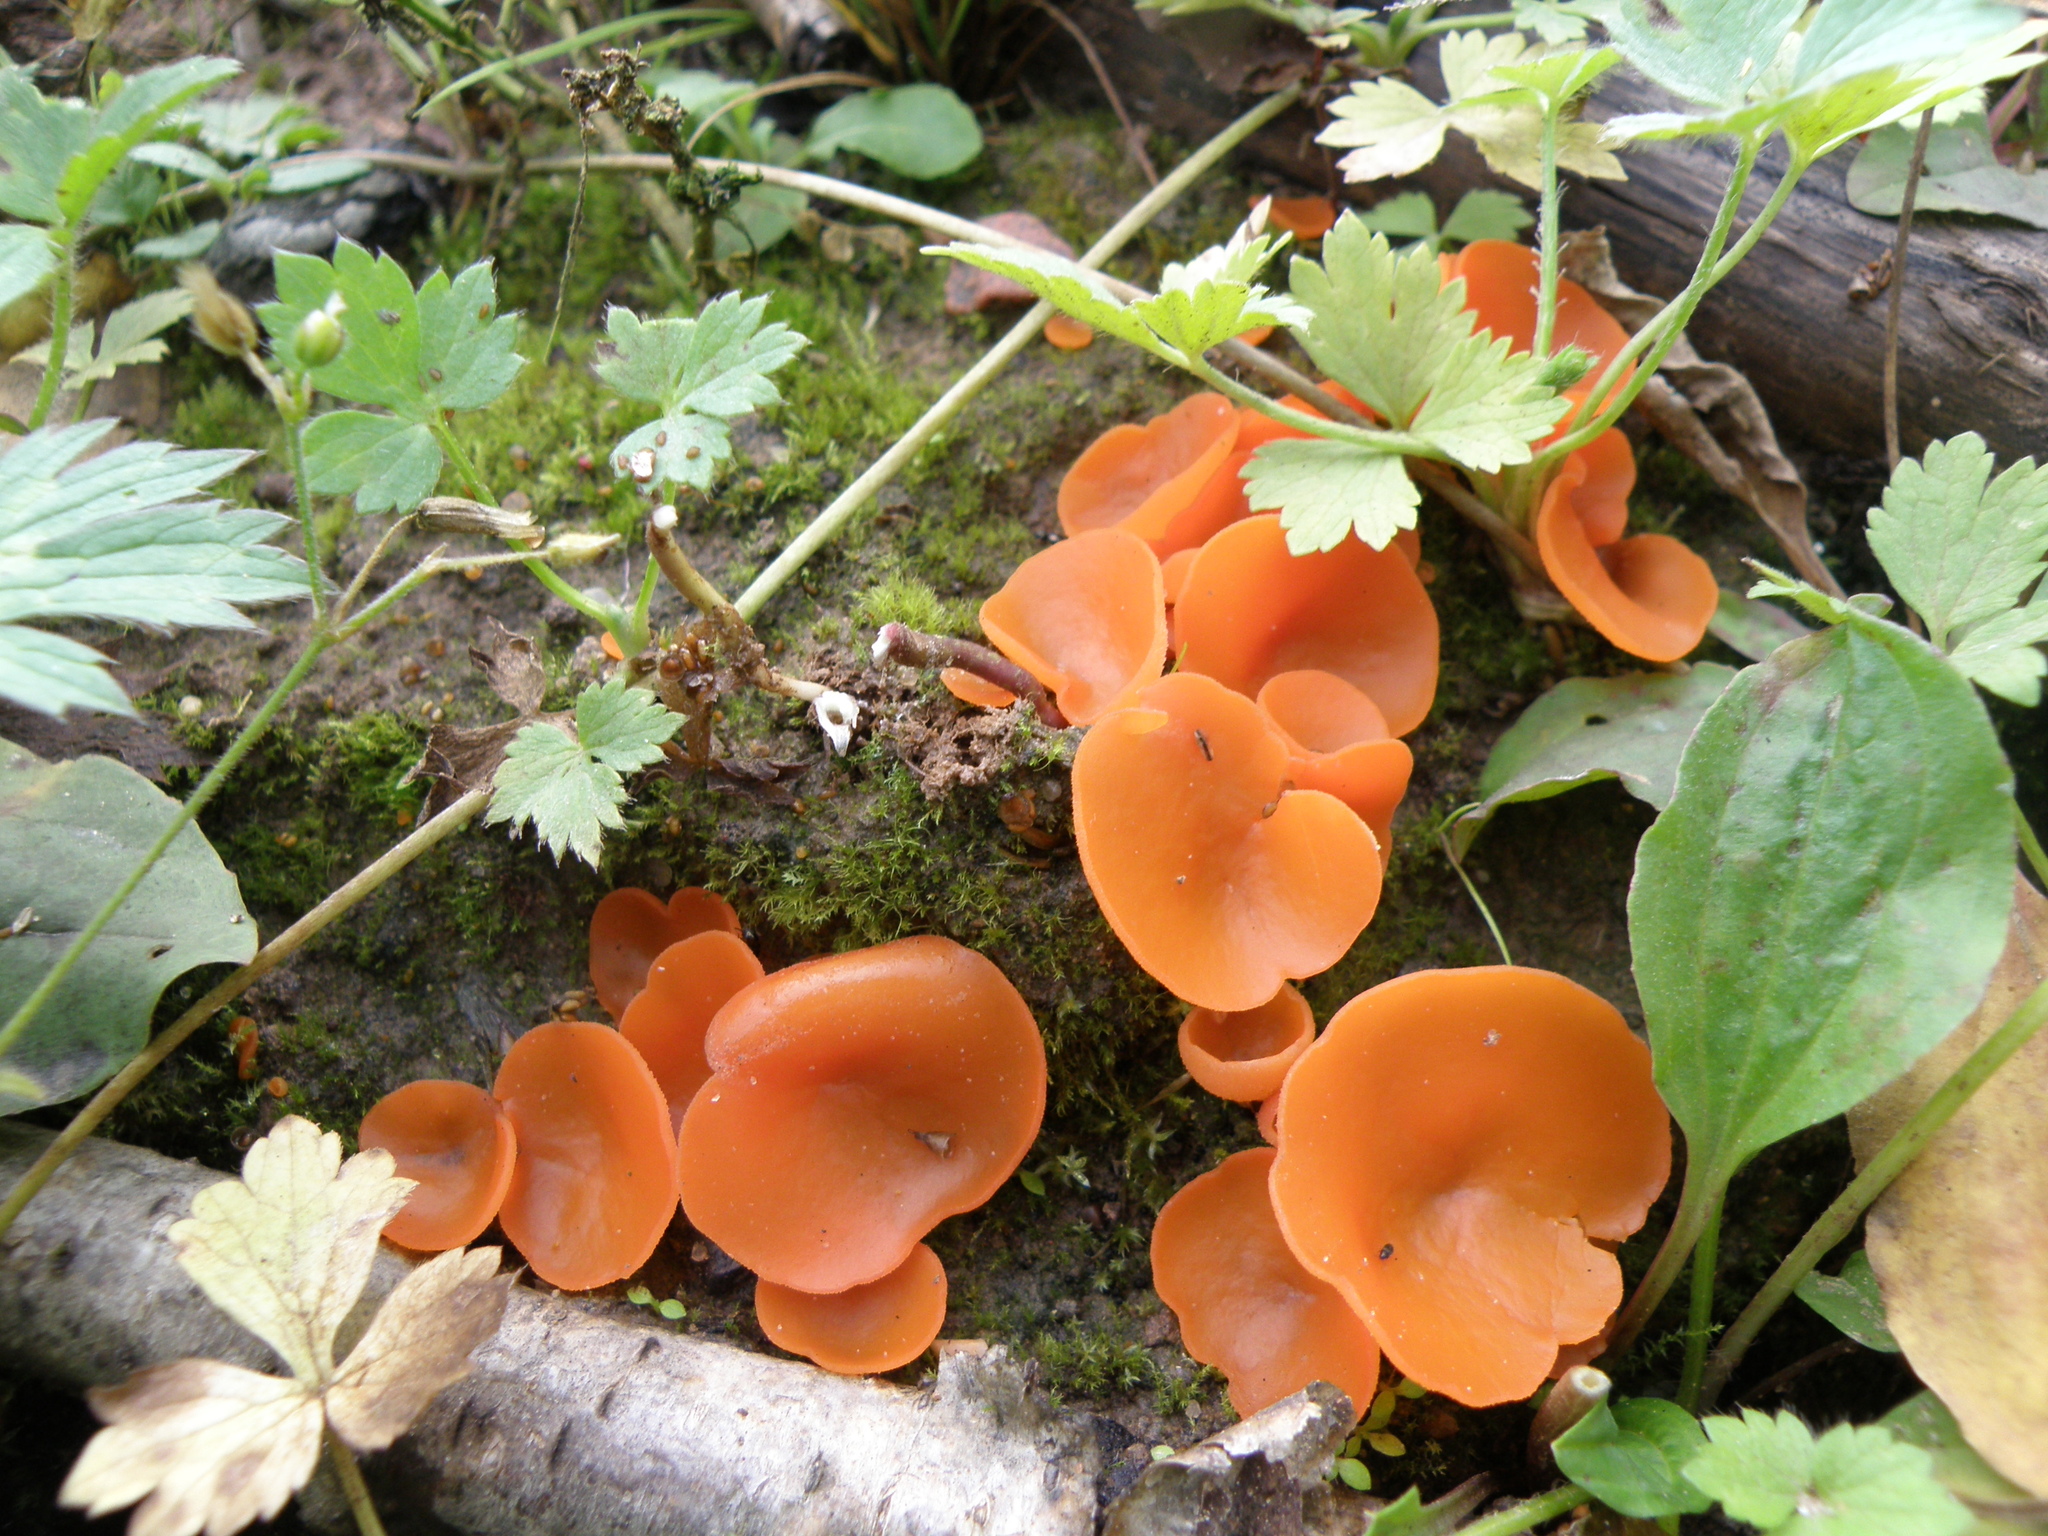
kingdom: Fungi
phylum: Ascomycota
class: Pezizomycetes
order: Pezizales
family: Pyronemataceae
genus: Aleuria
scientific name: Aleuria aurantia
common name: Orange peel fungus
